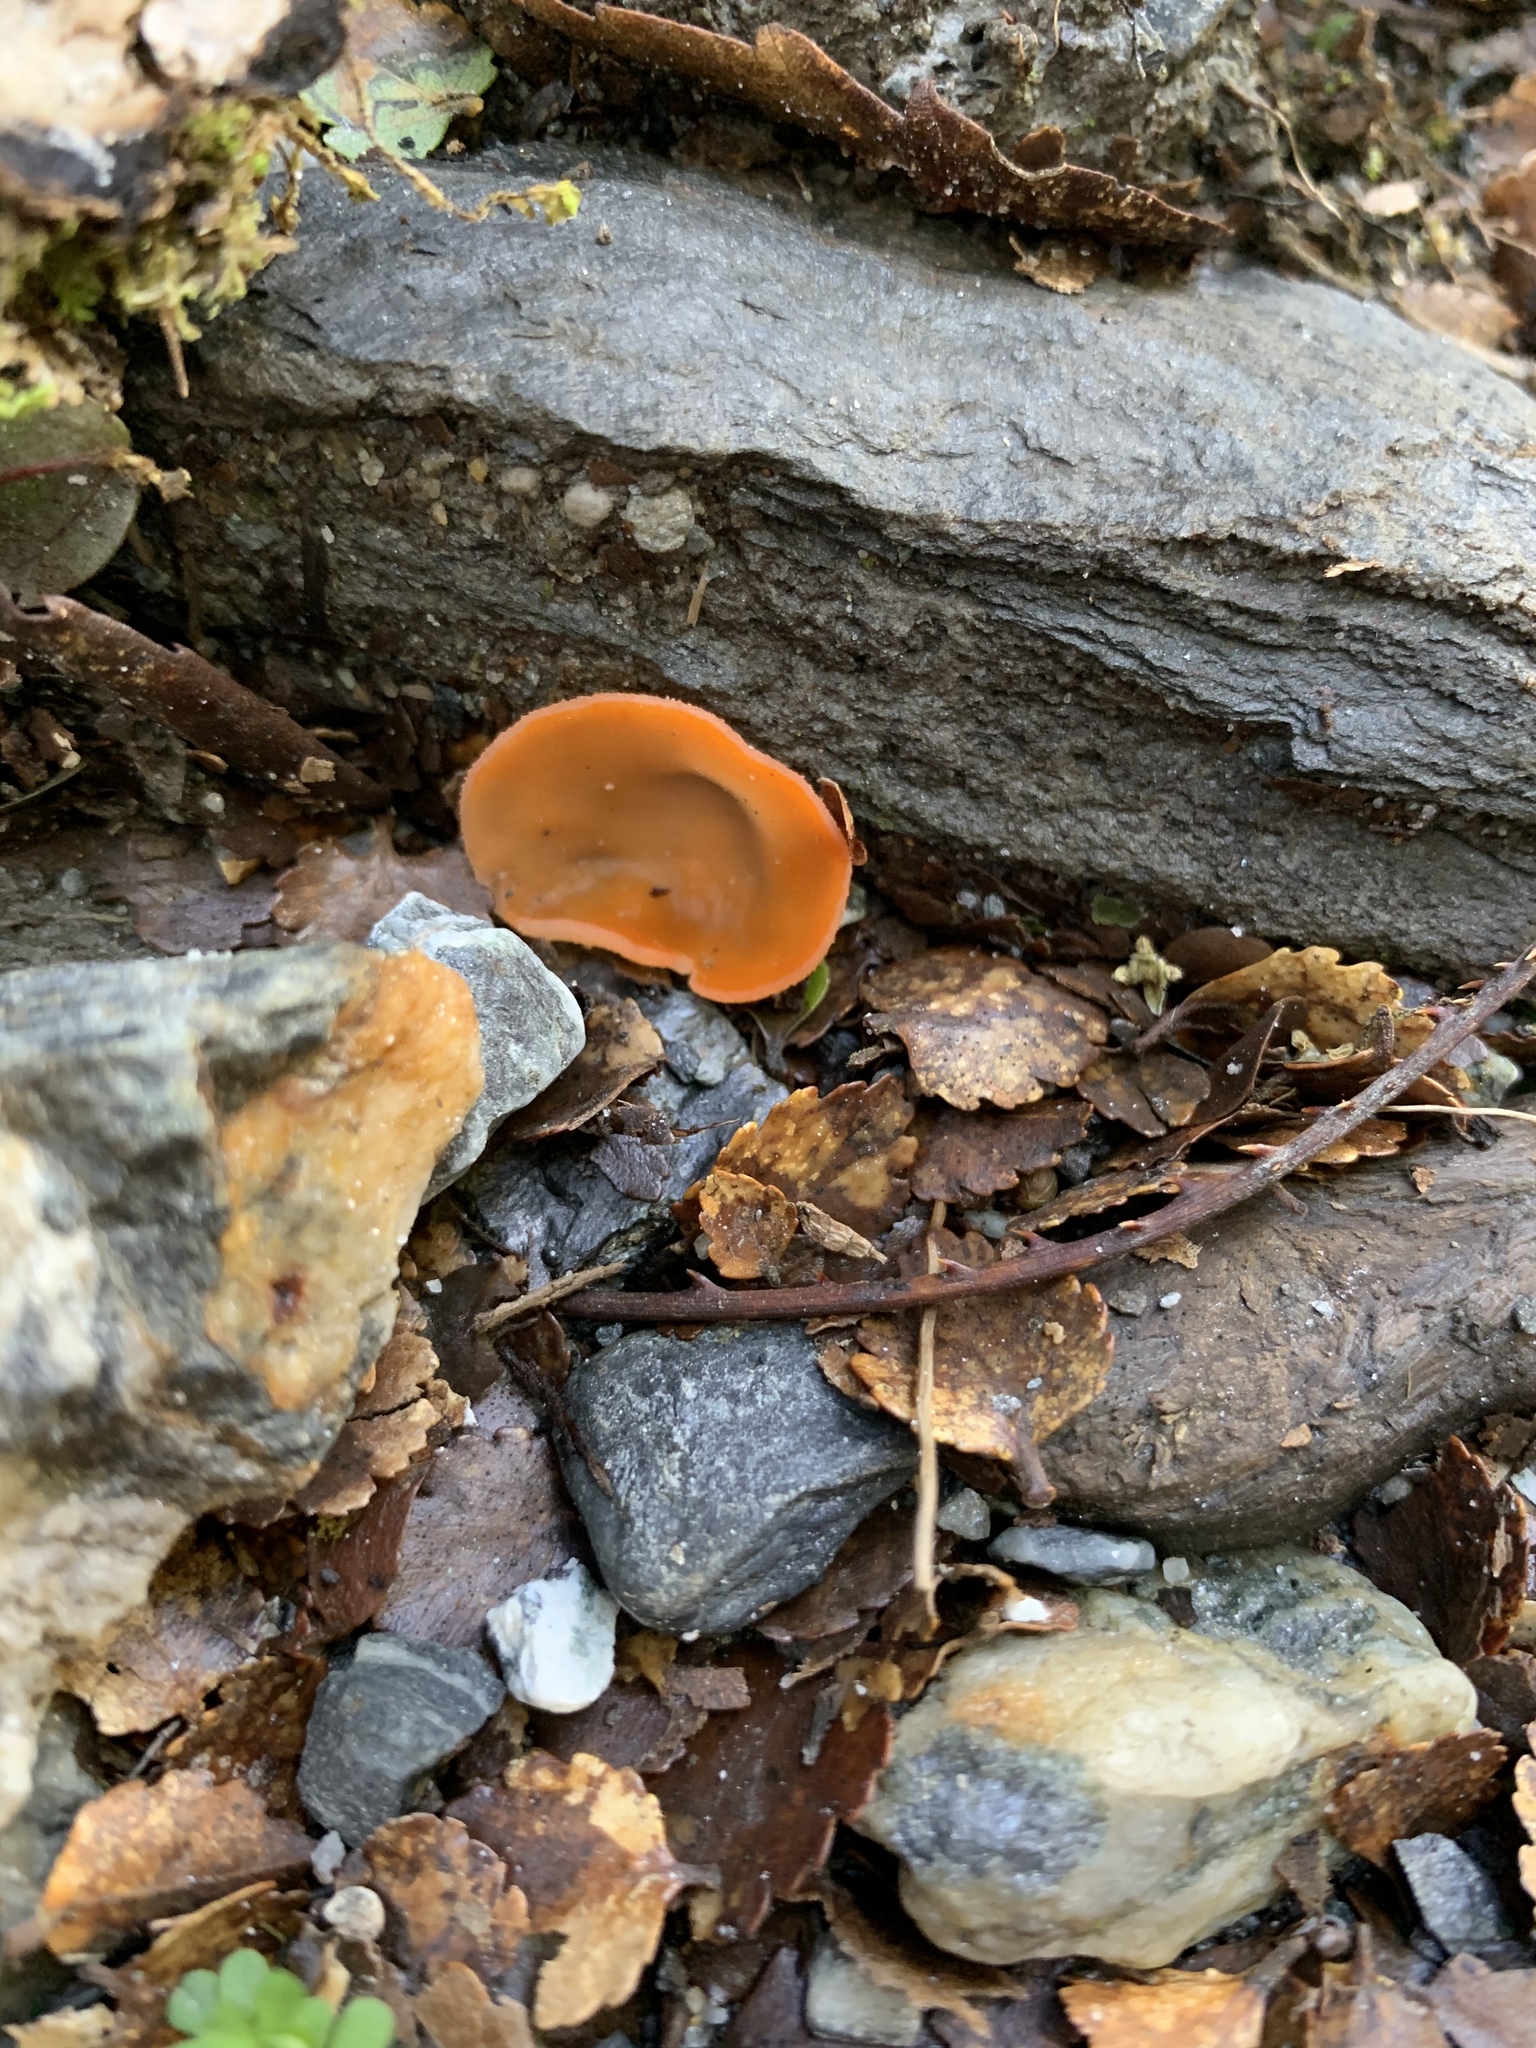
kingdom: Fungi
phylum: Ascomycota
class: Pezizomycetes
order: Pezizales
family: Pyronemataceae
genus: Aleuria
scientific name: Aleuria aurantia
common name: Orange peel fungus
